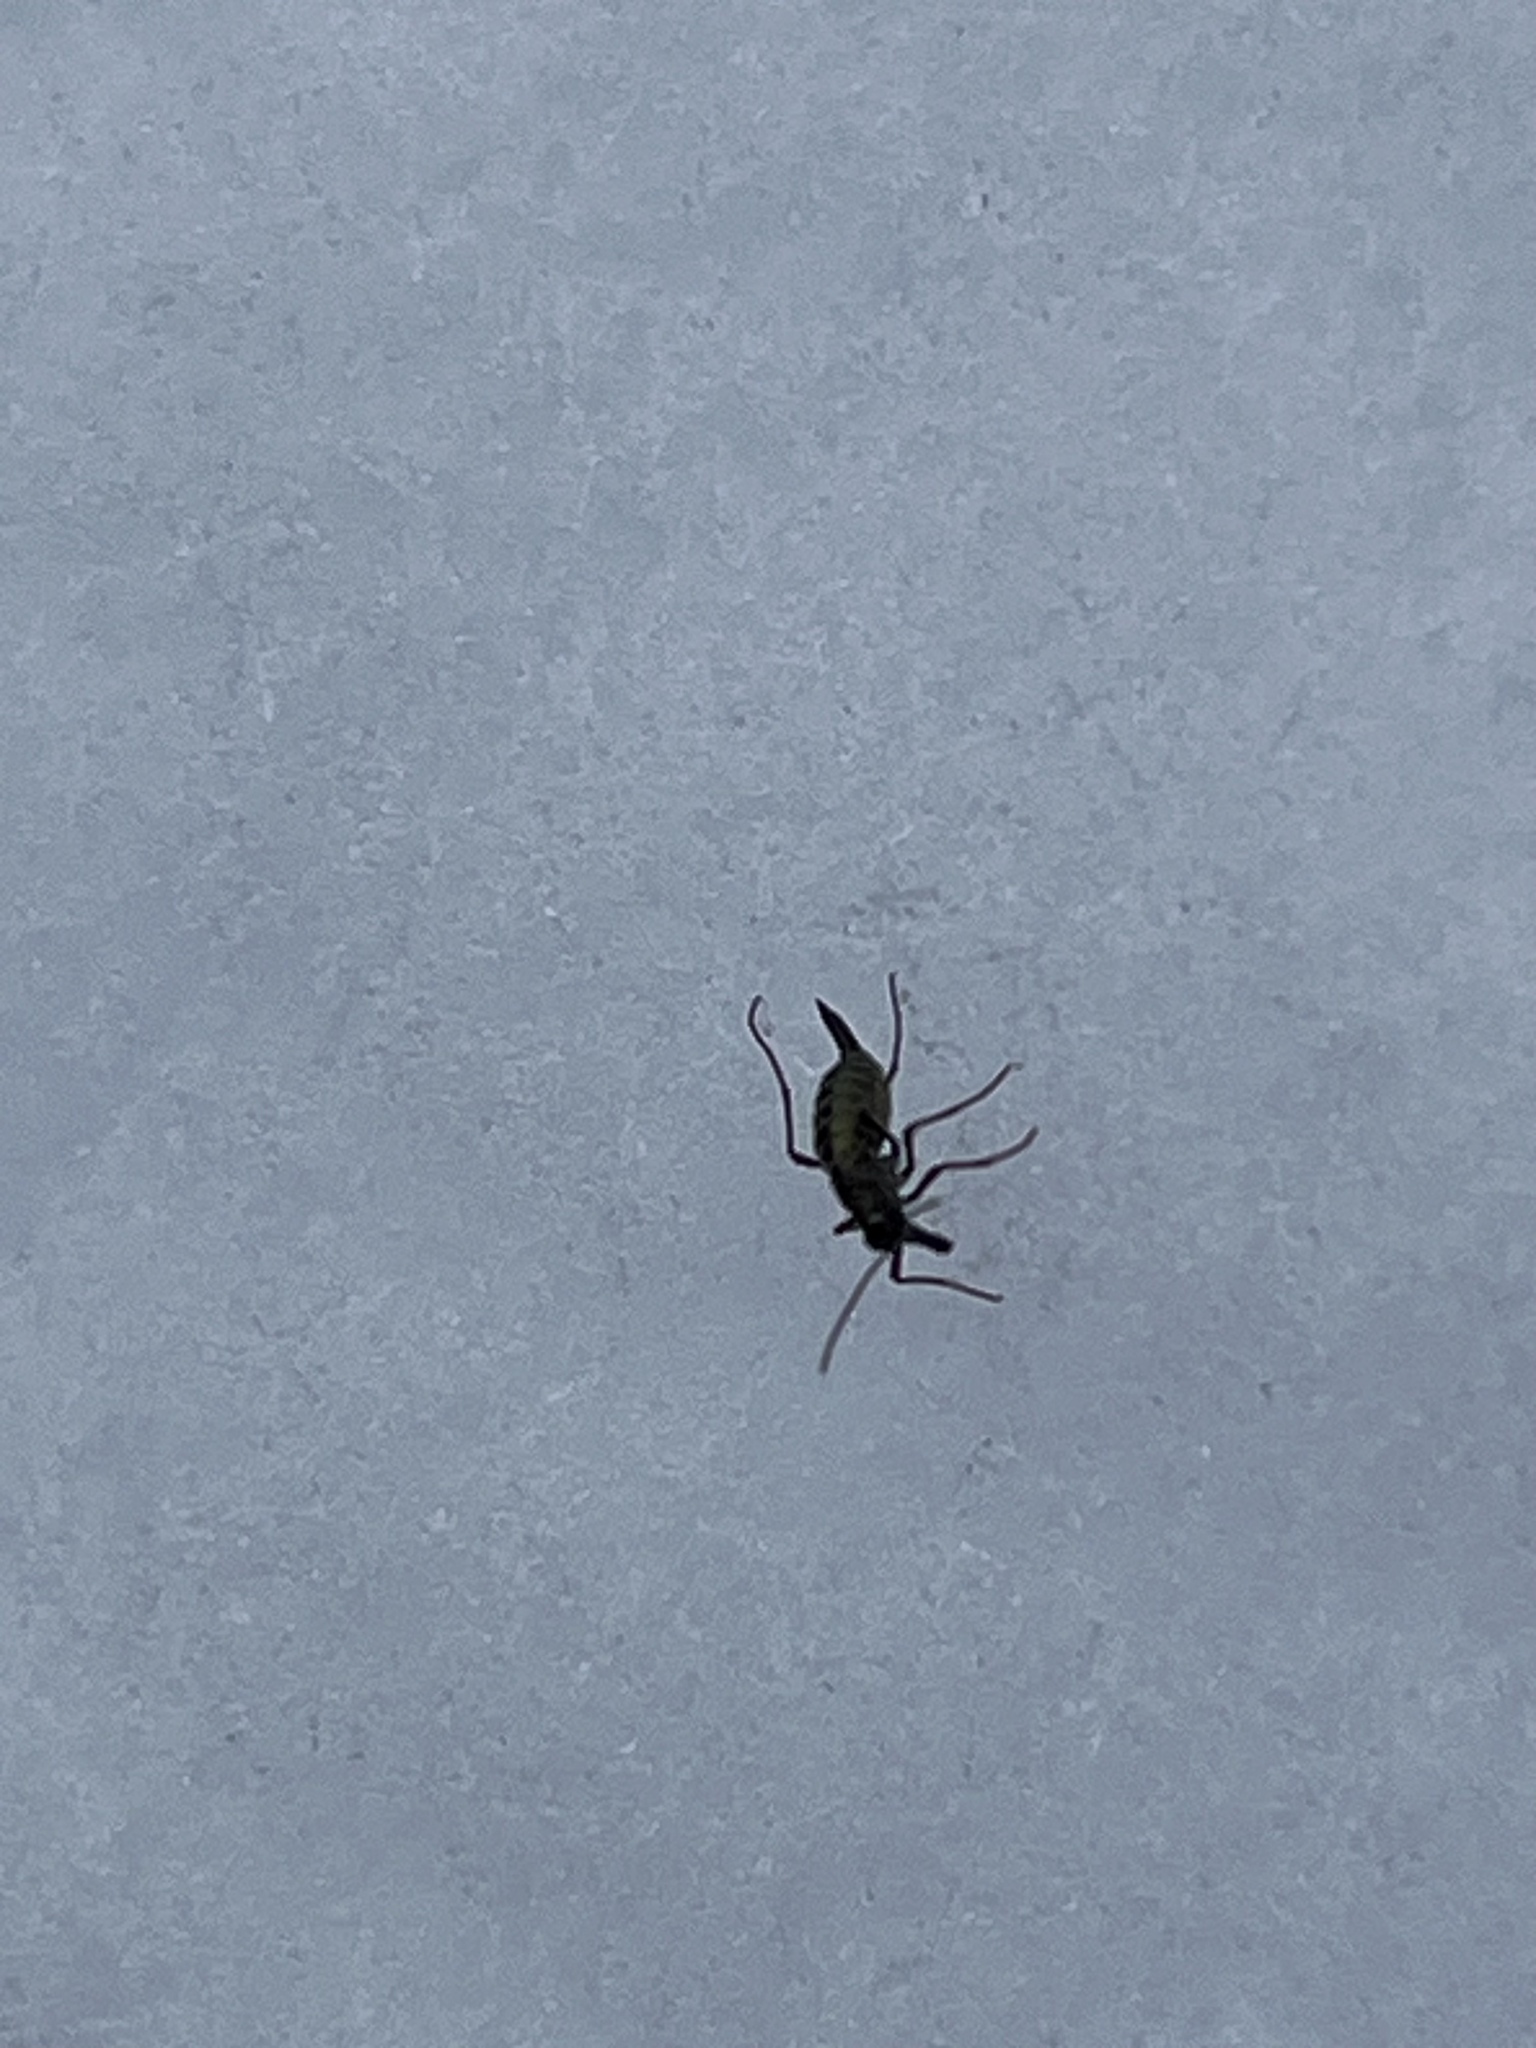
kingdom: Animalia
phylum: Arthropoda
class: Insecta
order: Mecoptera
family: Boreidae
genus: Boreus
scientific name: Boreus brumalis
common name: Mid-winter boreus
